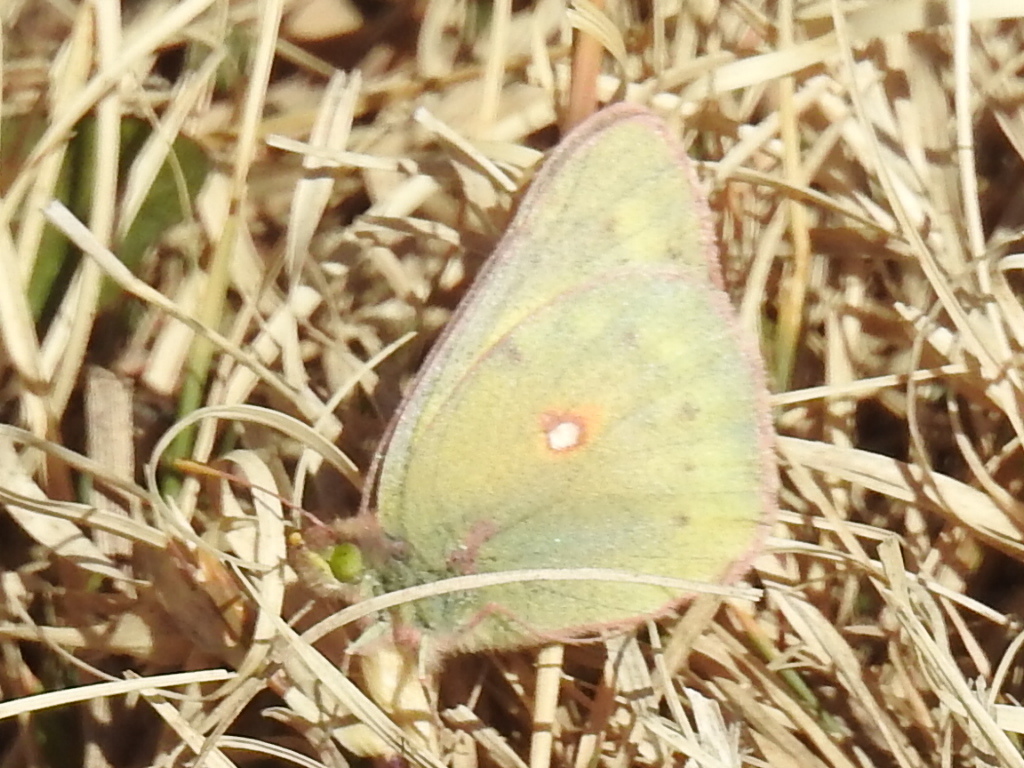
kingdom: Animalia
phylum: Arthropoda
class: Insecta
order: Lepidoptera
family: Pieridae
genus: Colias
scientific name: Colias eurytheme
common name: Alfalfa butterfly
